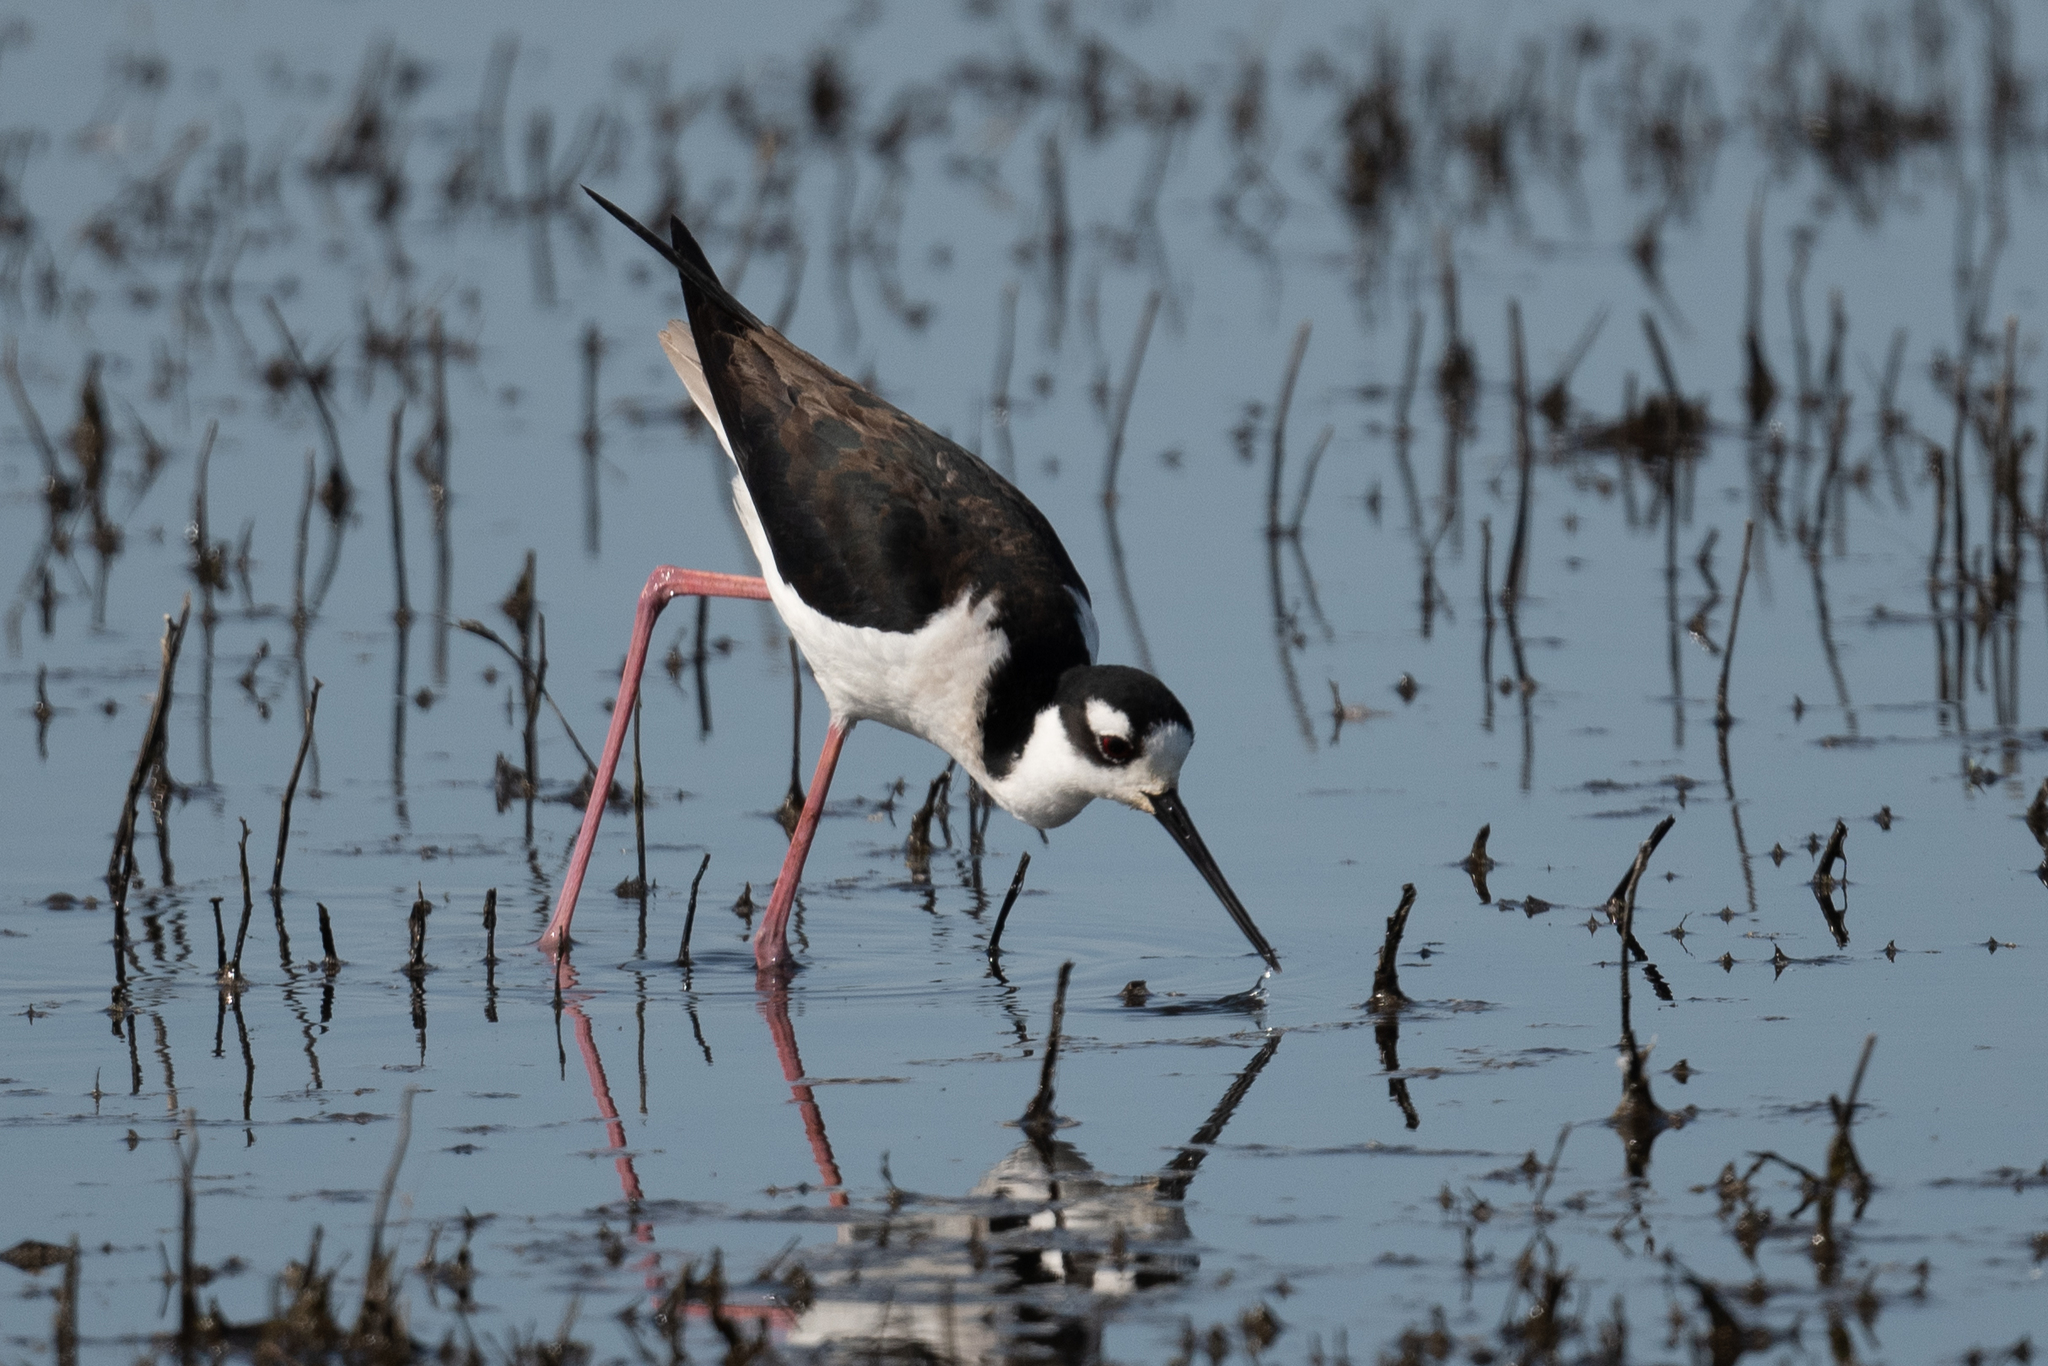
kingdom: Animalia
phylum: Chordata
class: Aves
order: Charadriiformes
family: Recurvirostridae
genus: Himantopus
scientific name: Himantopus mexicanus
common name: Black-necked stilt
